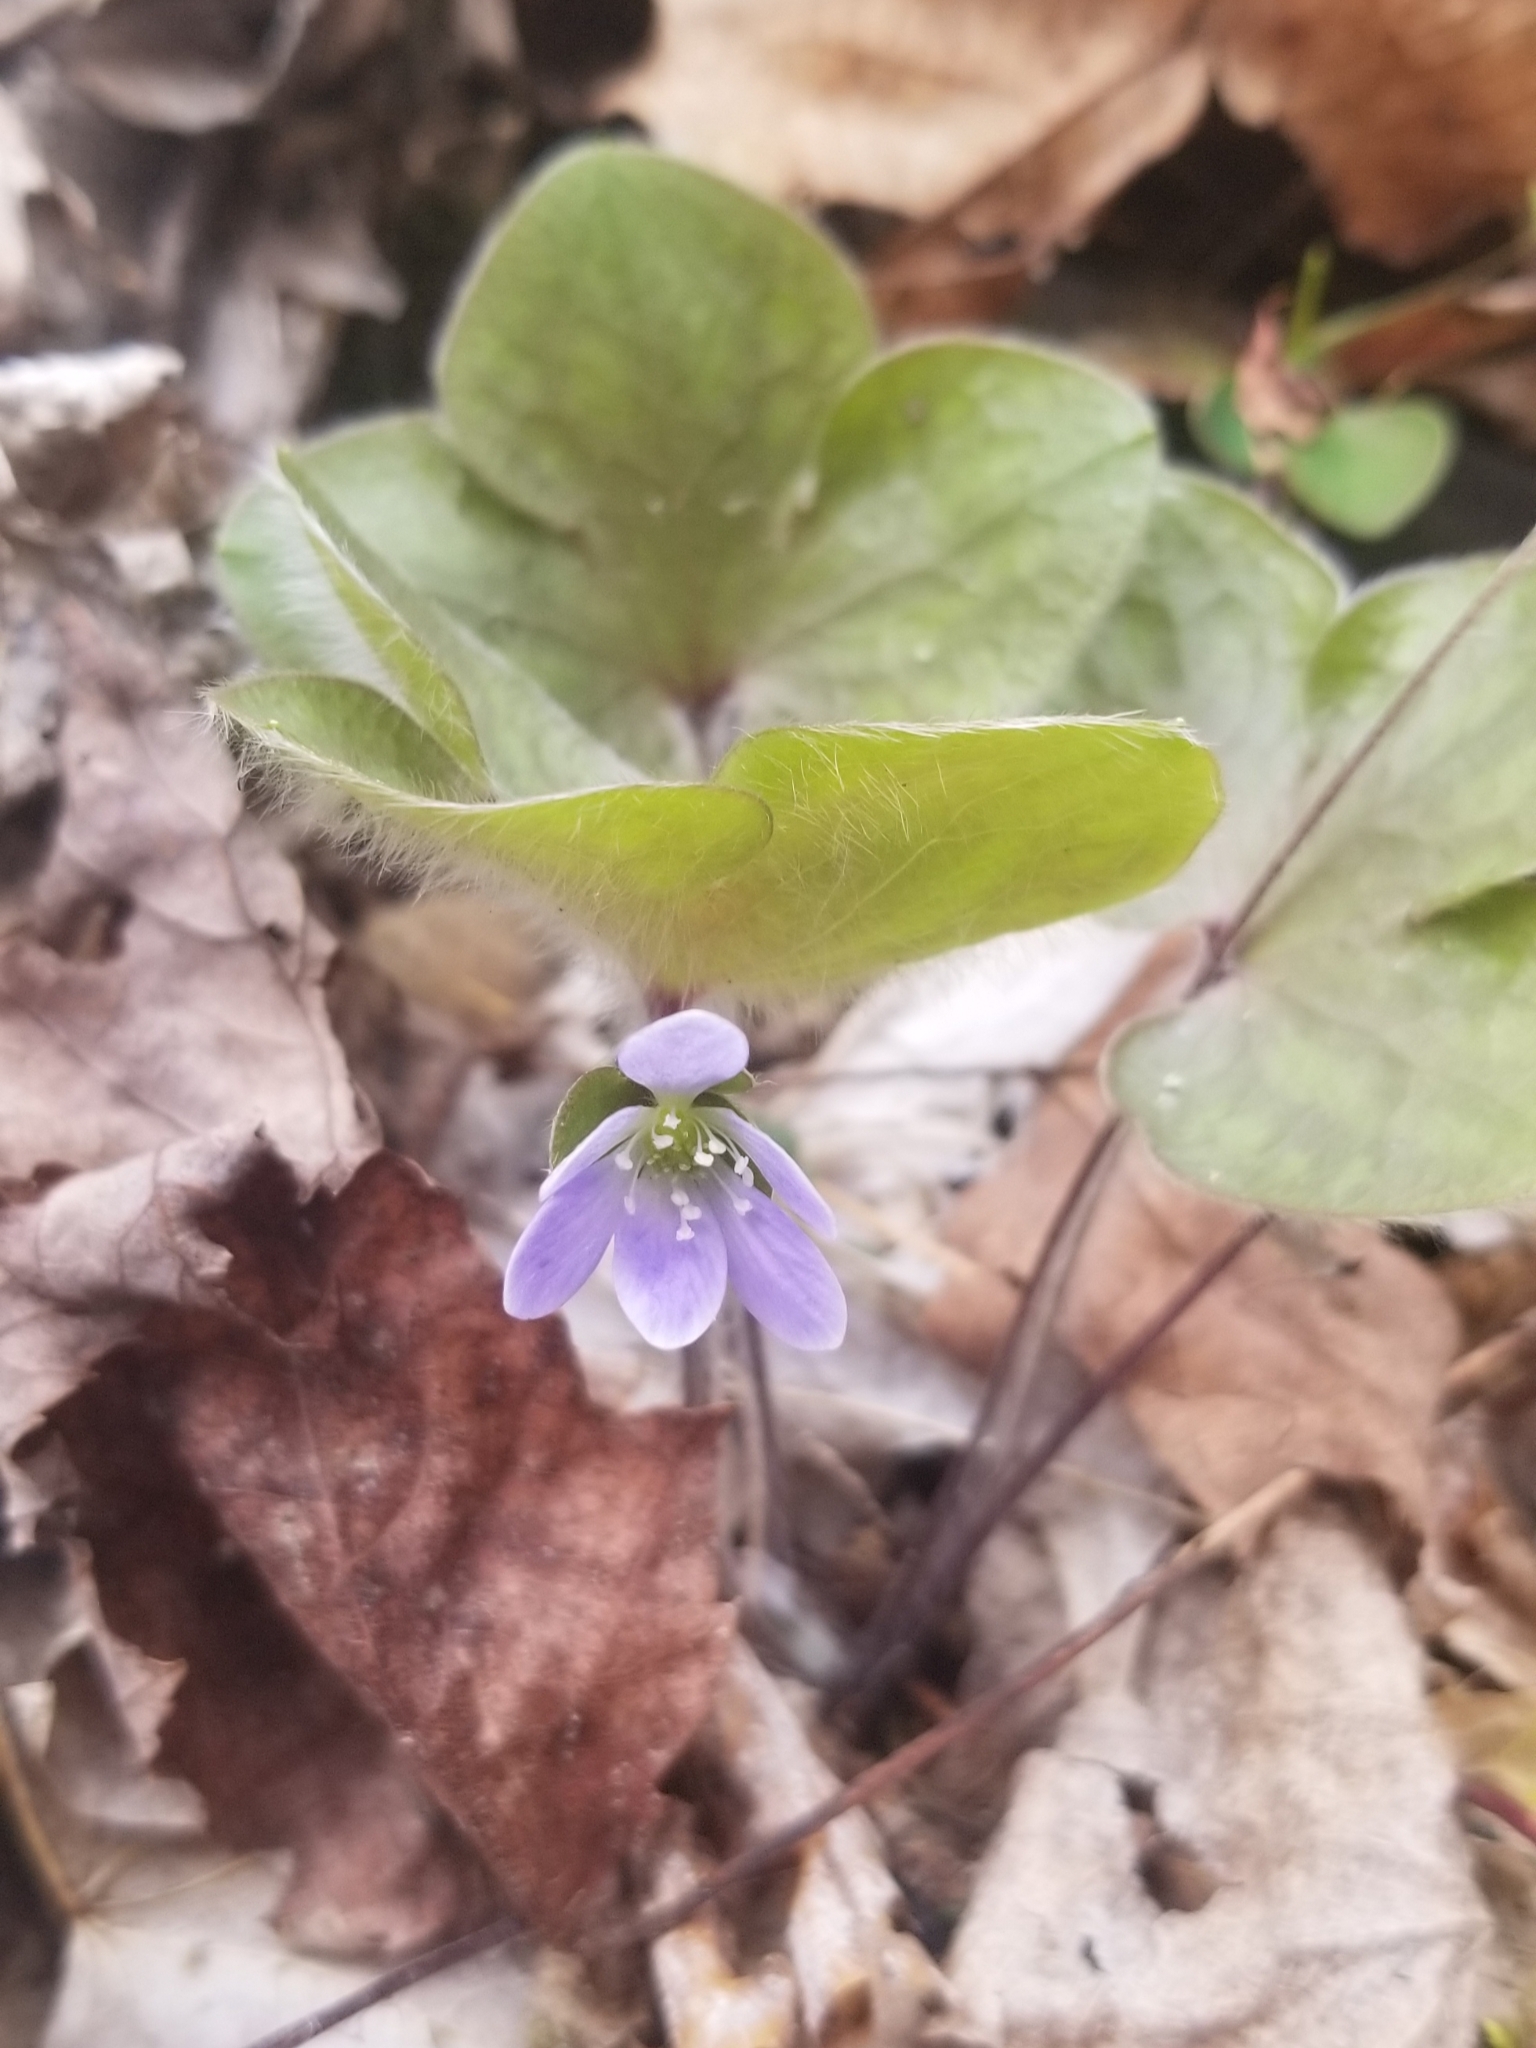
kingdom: Plantae
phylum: Tracheophyta
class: Magnoliopsida
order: Ranunculales
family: Ranunculaceae
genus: Hepatica
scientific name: Hepatica americana
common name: American hepatica
